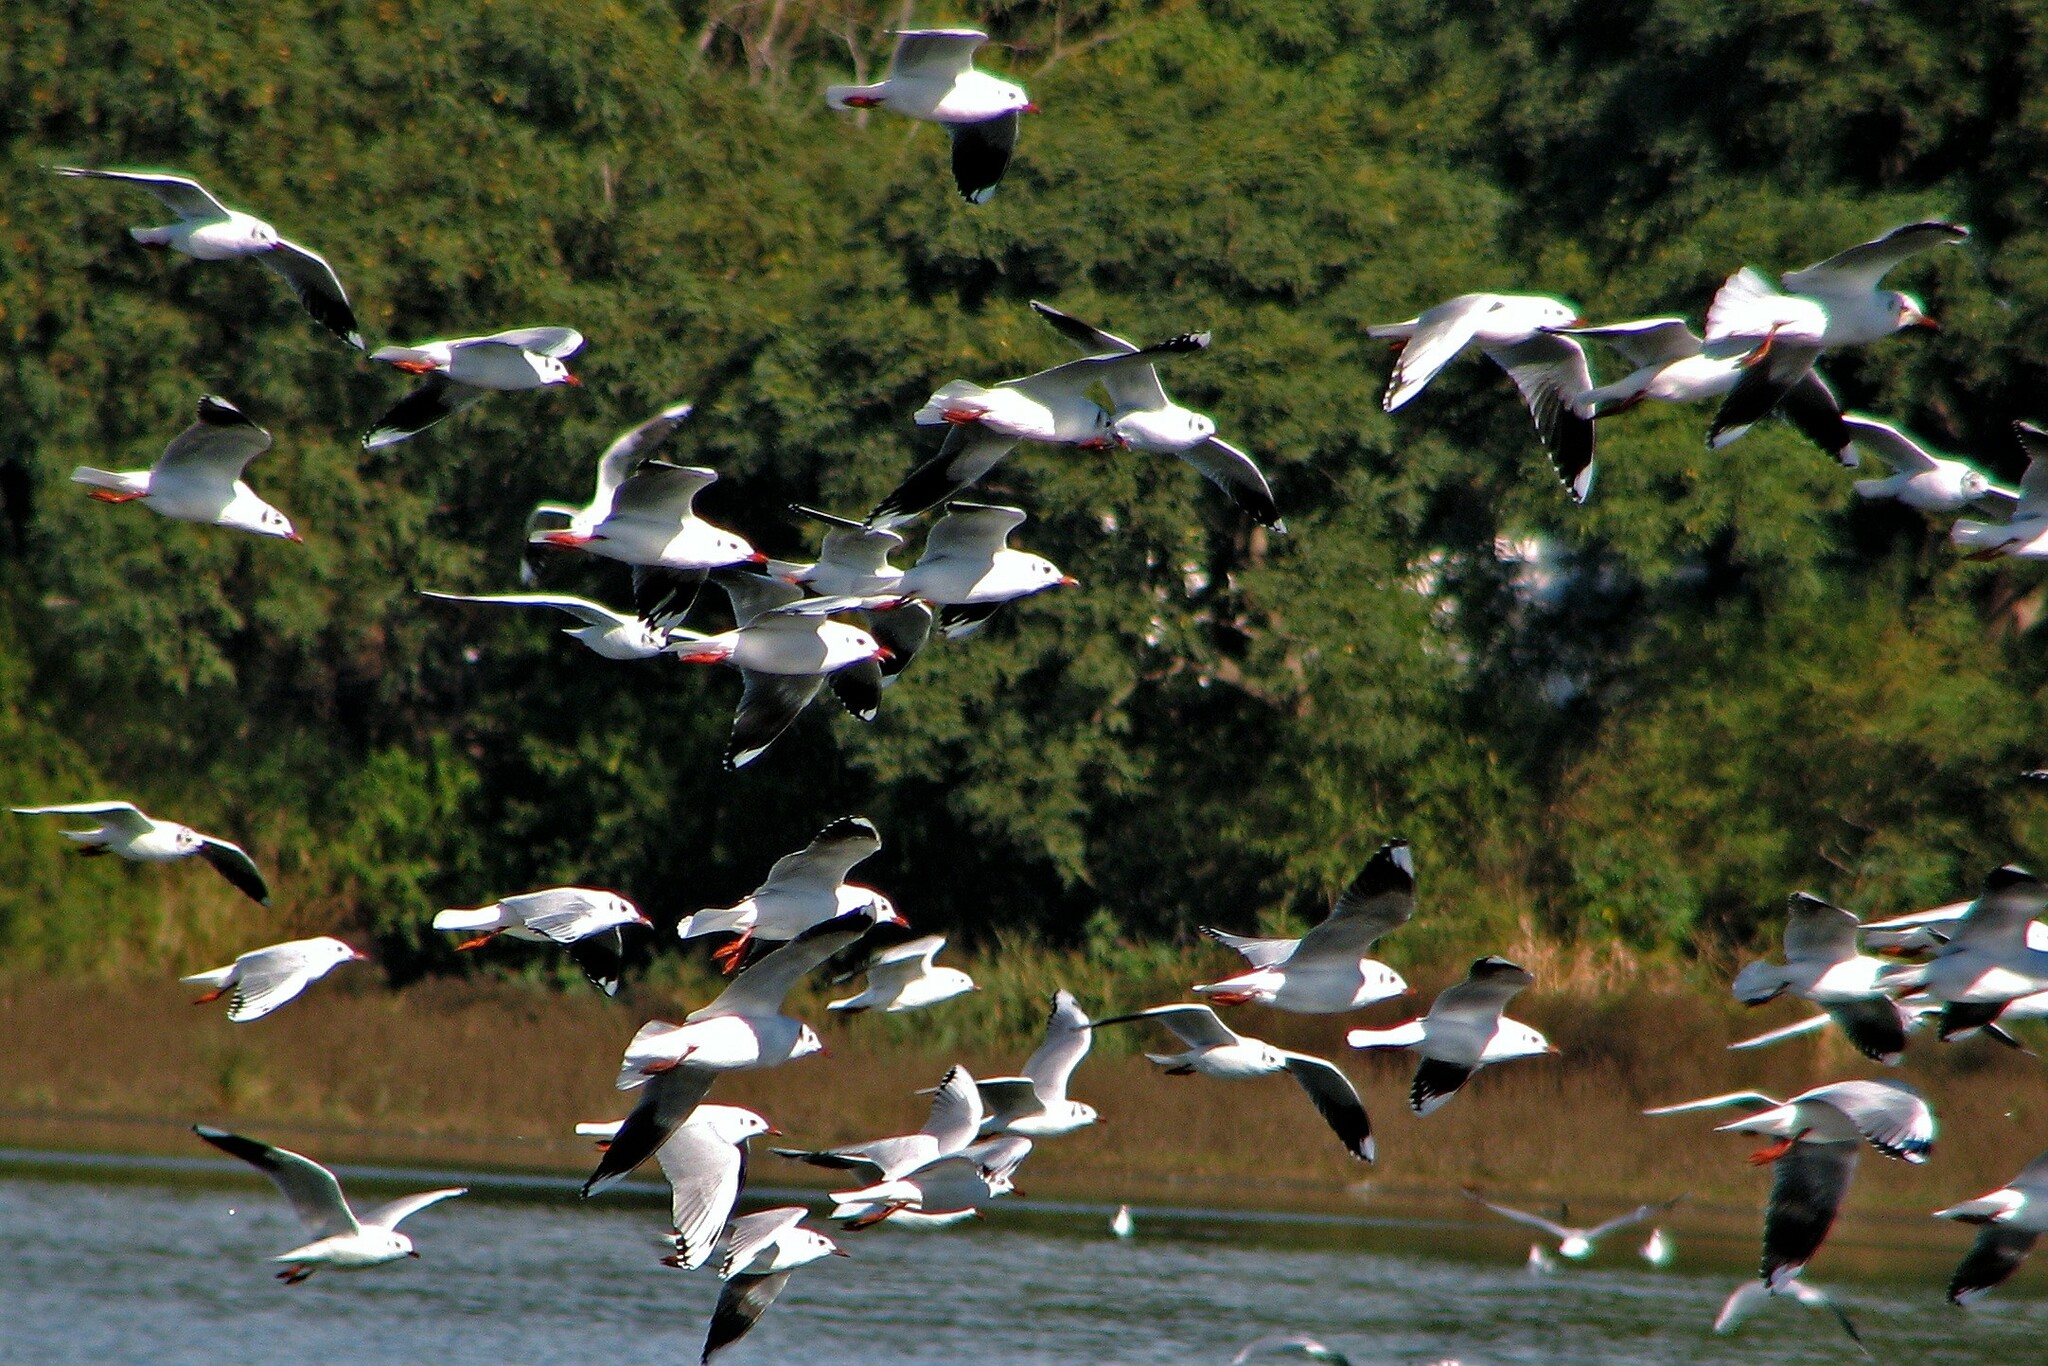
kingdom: Animalia
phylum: Chordata
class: Aves
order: Charadriiformes
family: Laridae
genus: Chroicocephalus
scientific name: Chroicocephalus maculipennis
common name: Brown-hooded gull
